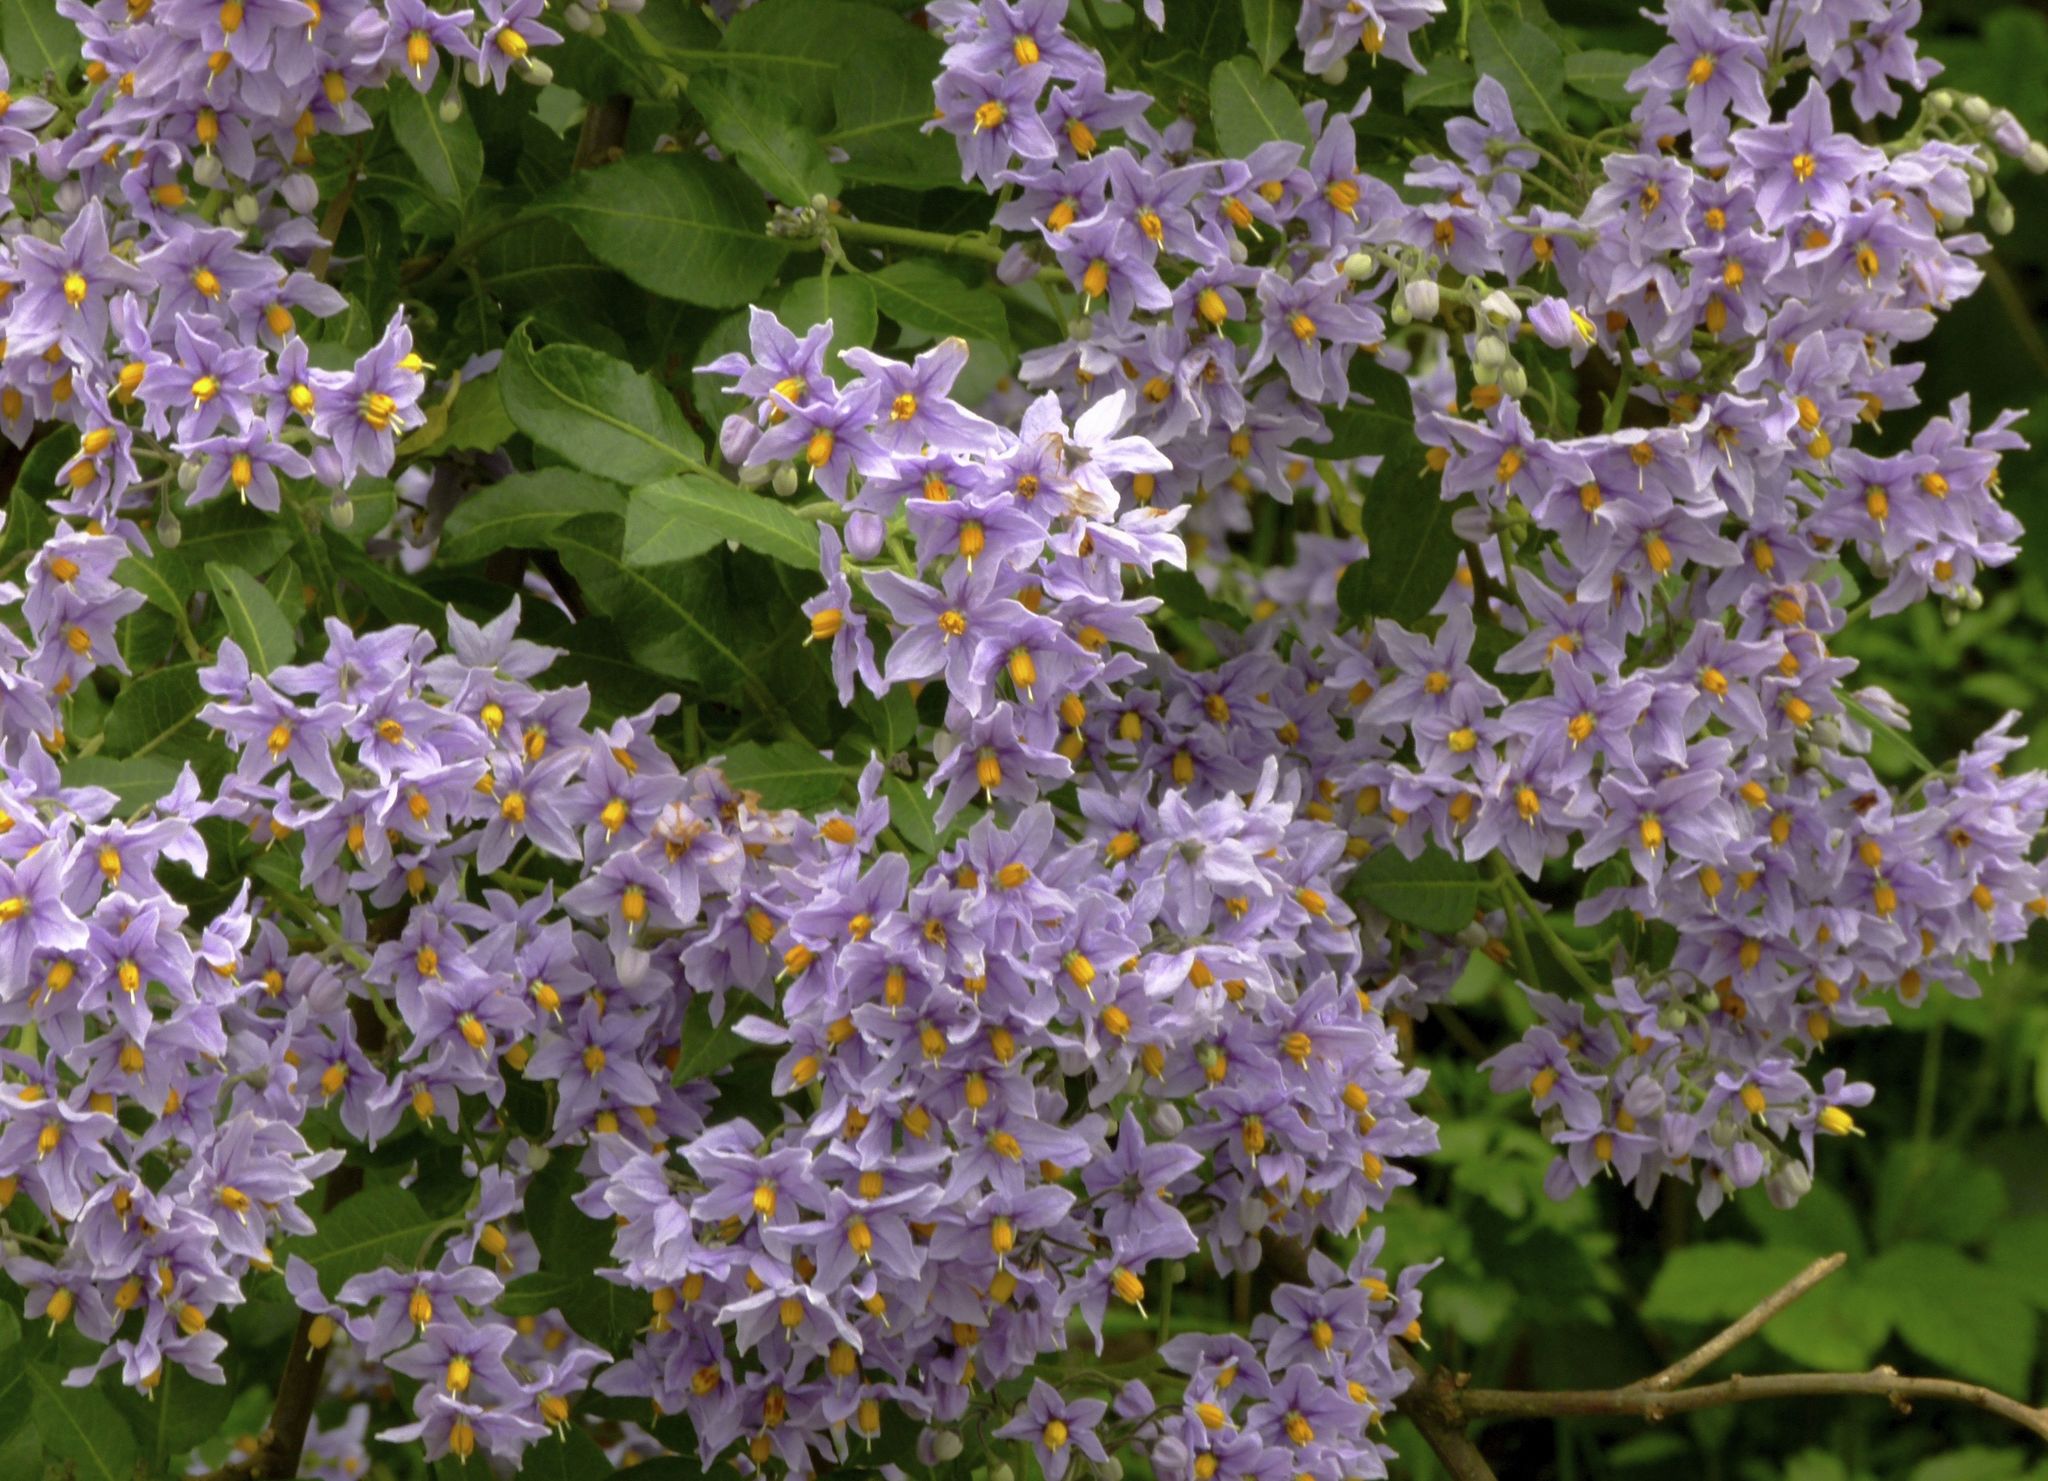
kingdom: Plantae
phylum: Tracheophyta
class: Magnoliopsida
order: Solanales
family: Solanaceae
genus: Solanum
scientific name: Solanum crispum
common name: Chilean nightshade
